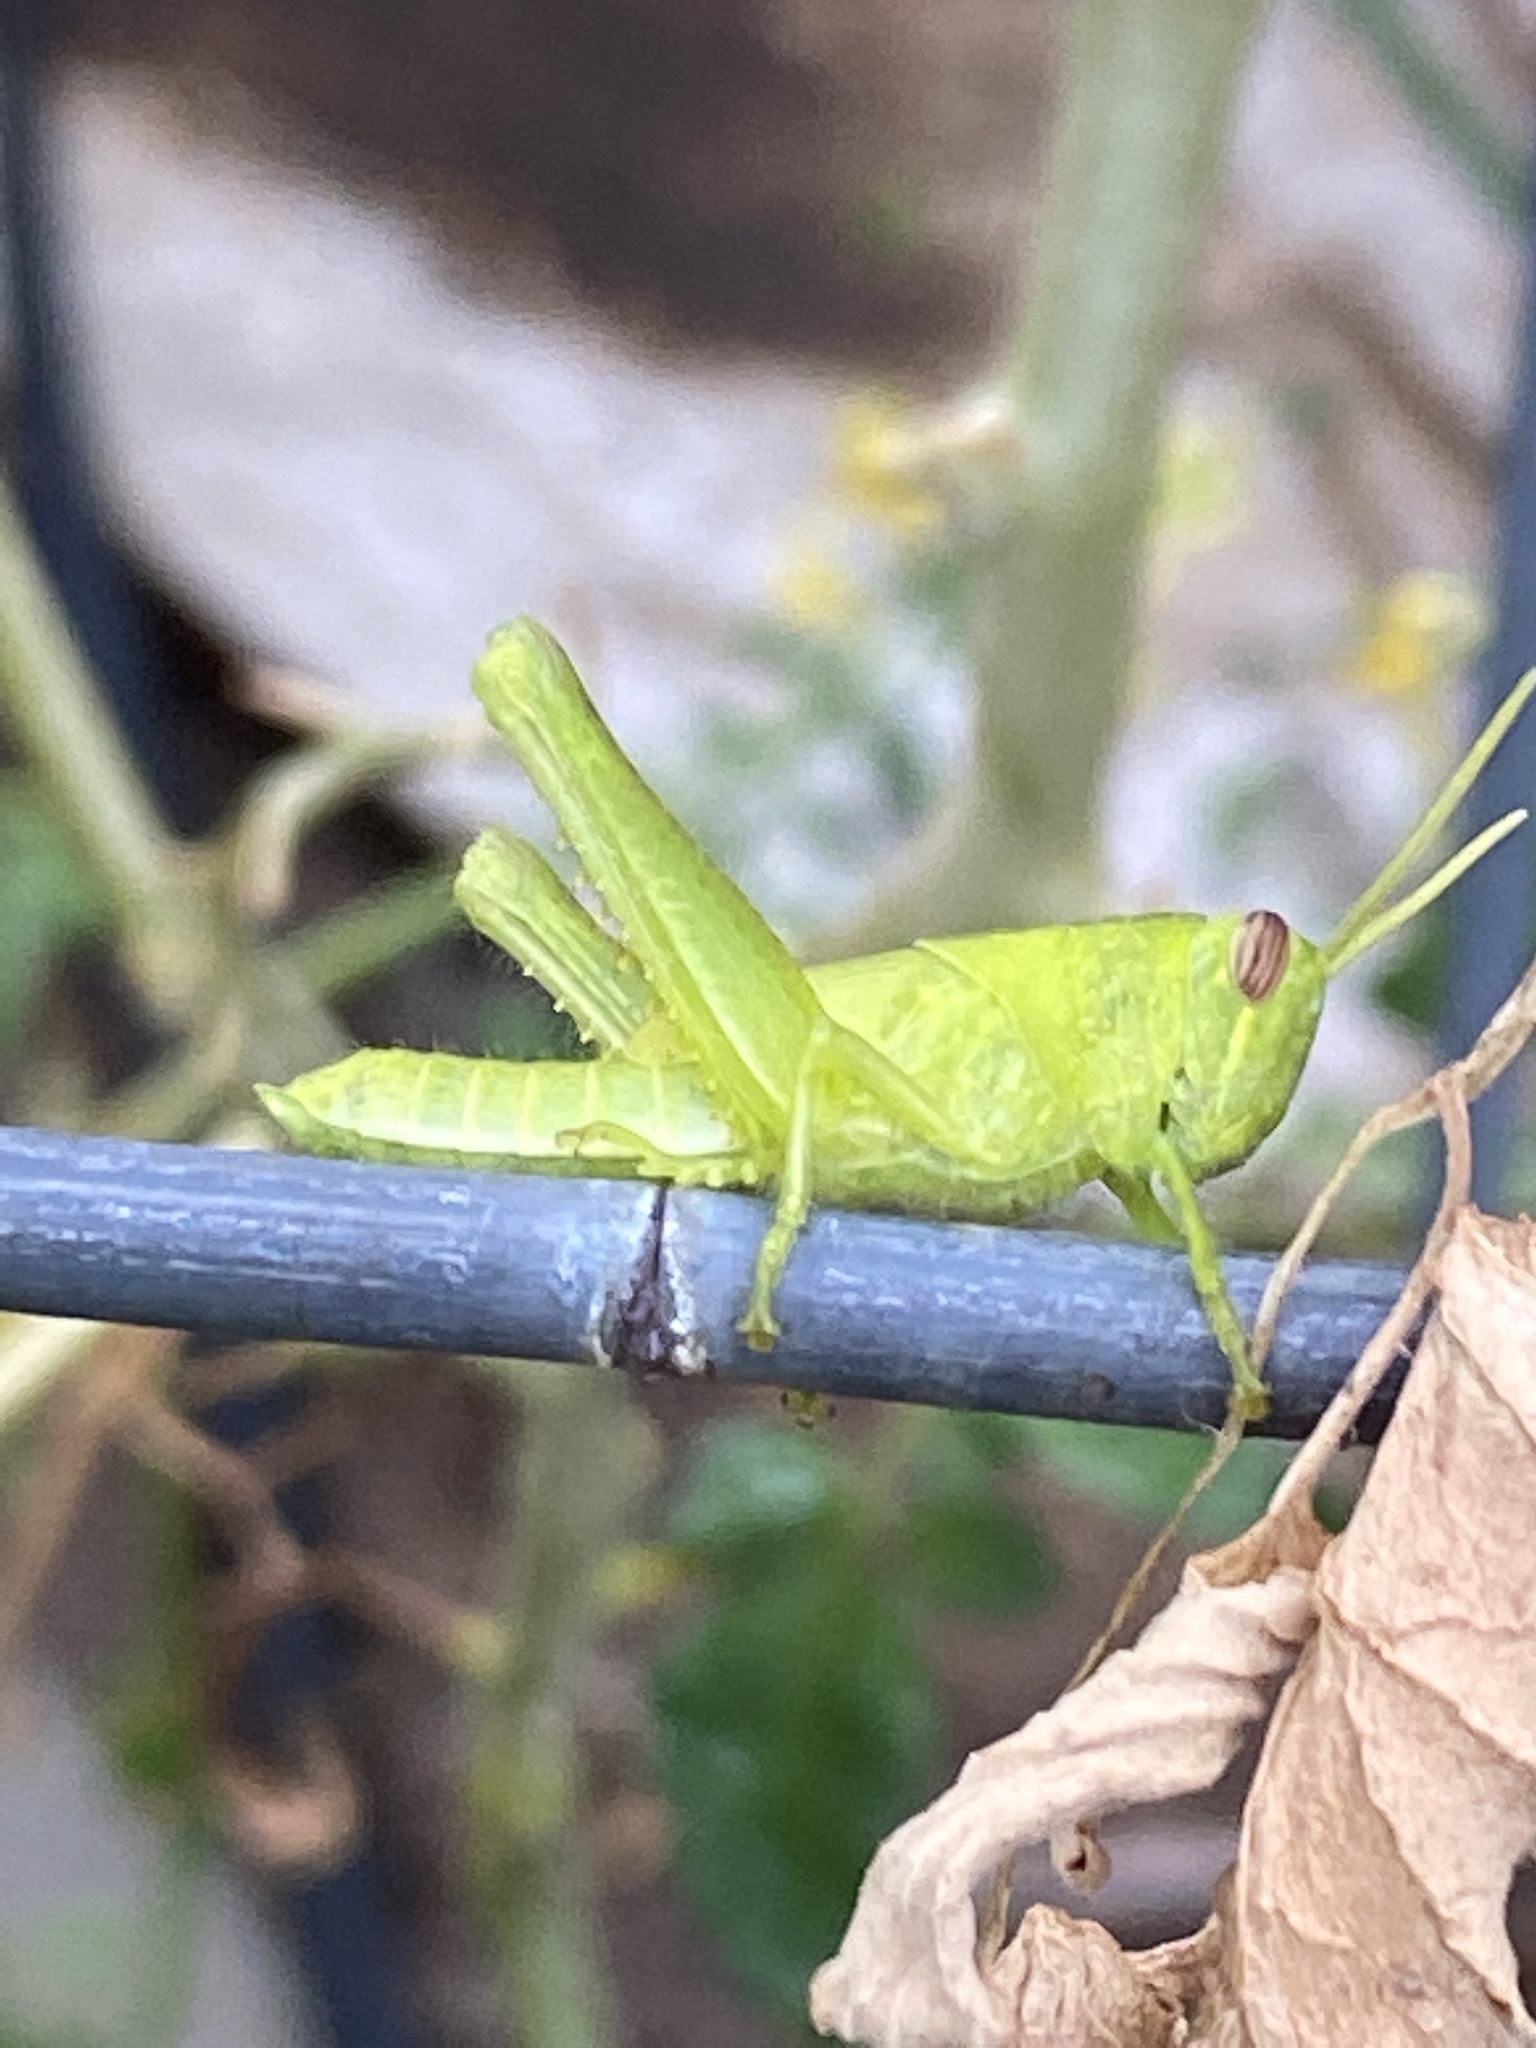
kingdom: Animalia
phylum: Arthropoda
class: Insecta
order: Orthoptera
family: Acrididae
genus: Schistocerca
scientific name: Schistocerca nitens
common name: Vagrant grasshopper
